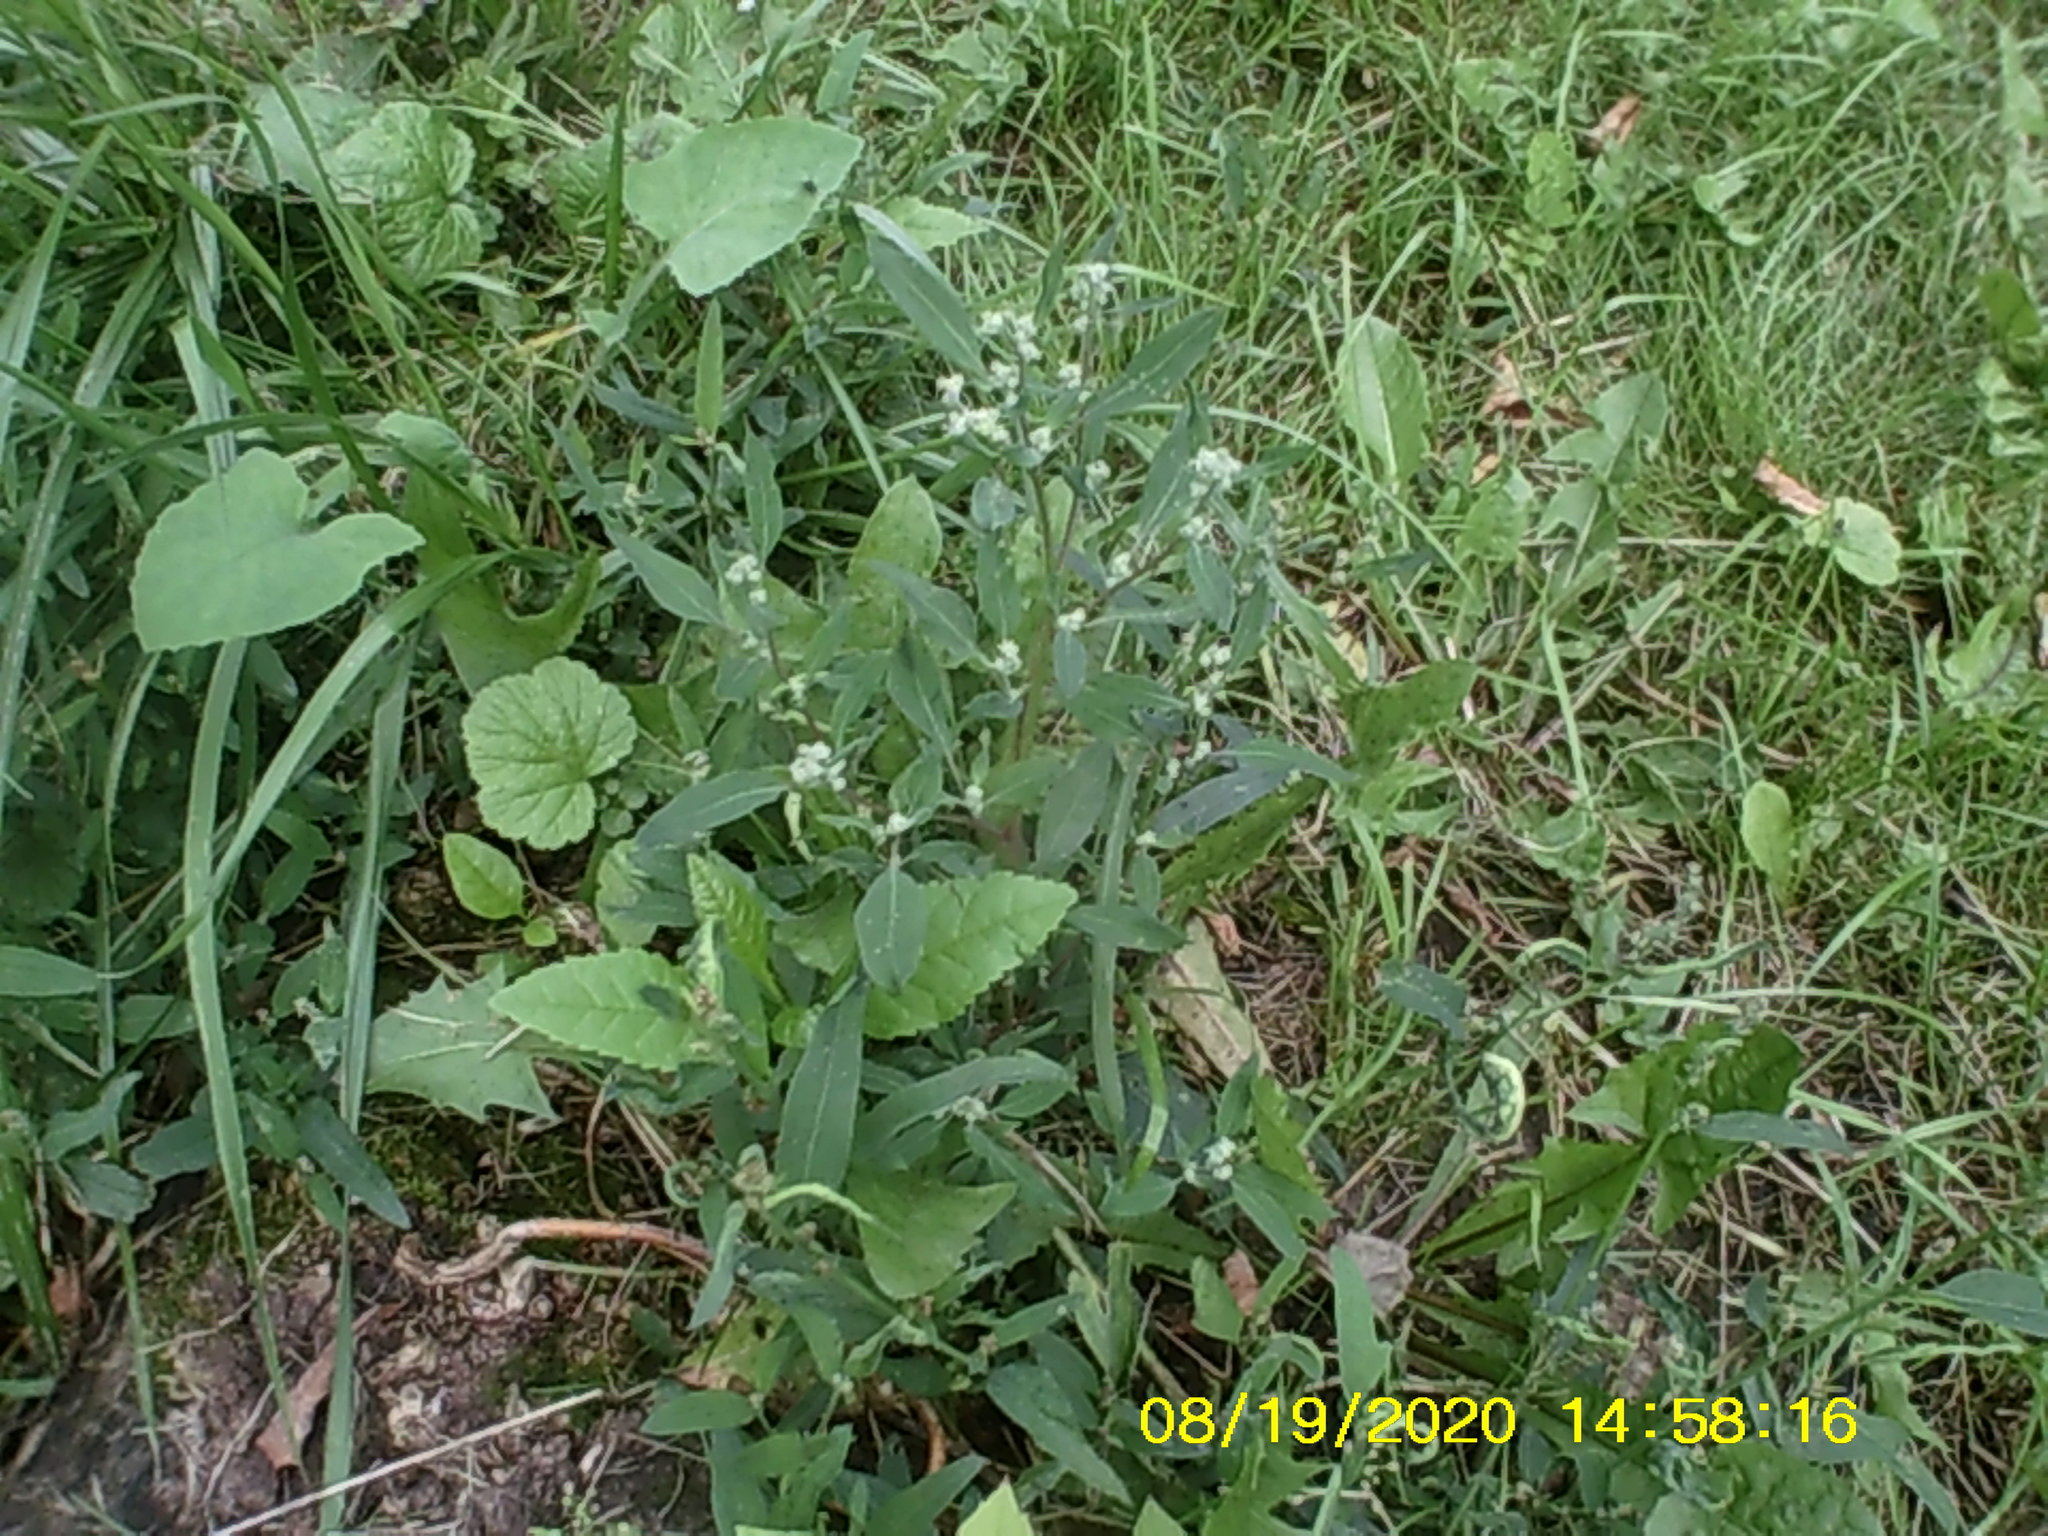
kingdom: Plantae
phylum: Tracheophyta
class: Magnoliopsida
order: Caryophyllales
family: Amaranthaceae
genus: Chenopodium
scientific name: Chenopodium album
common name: Fat-hen
